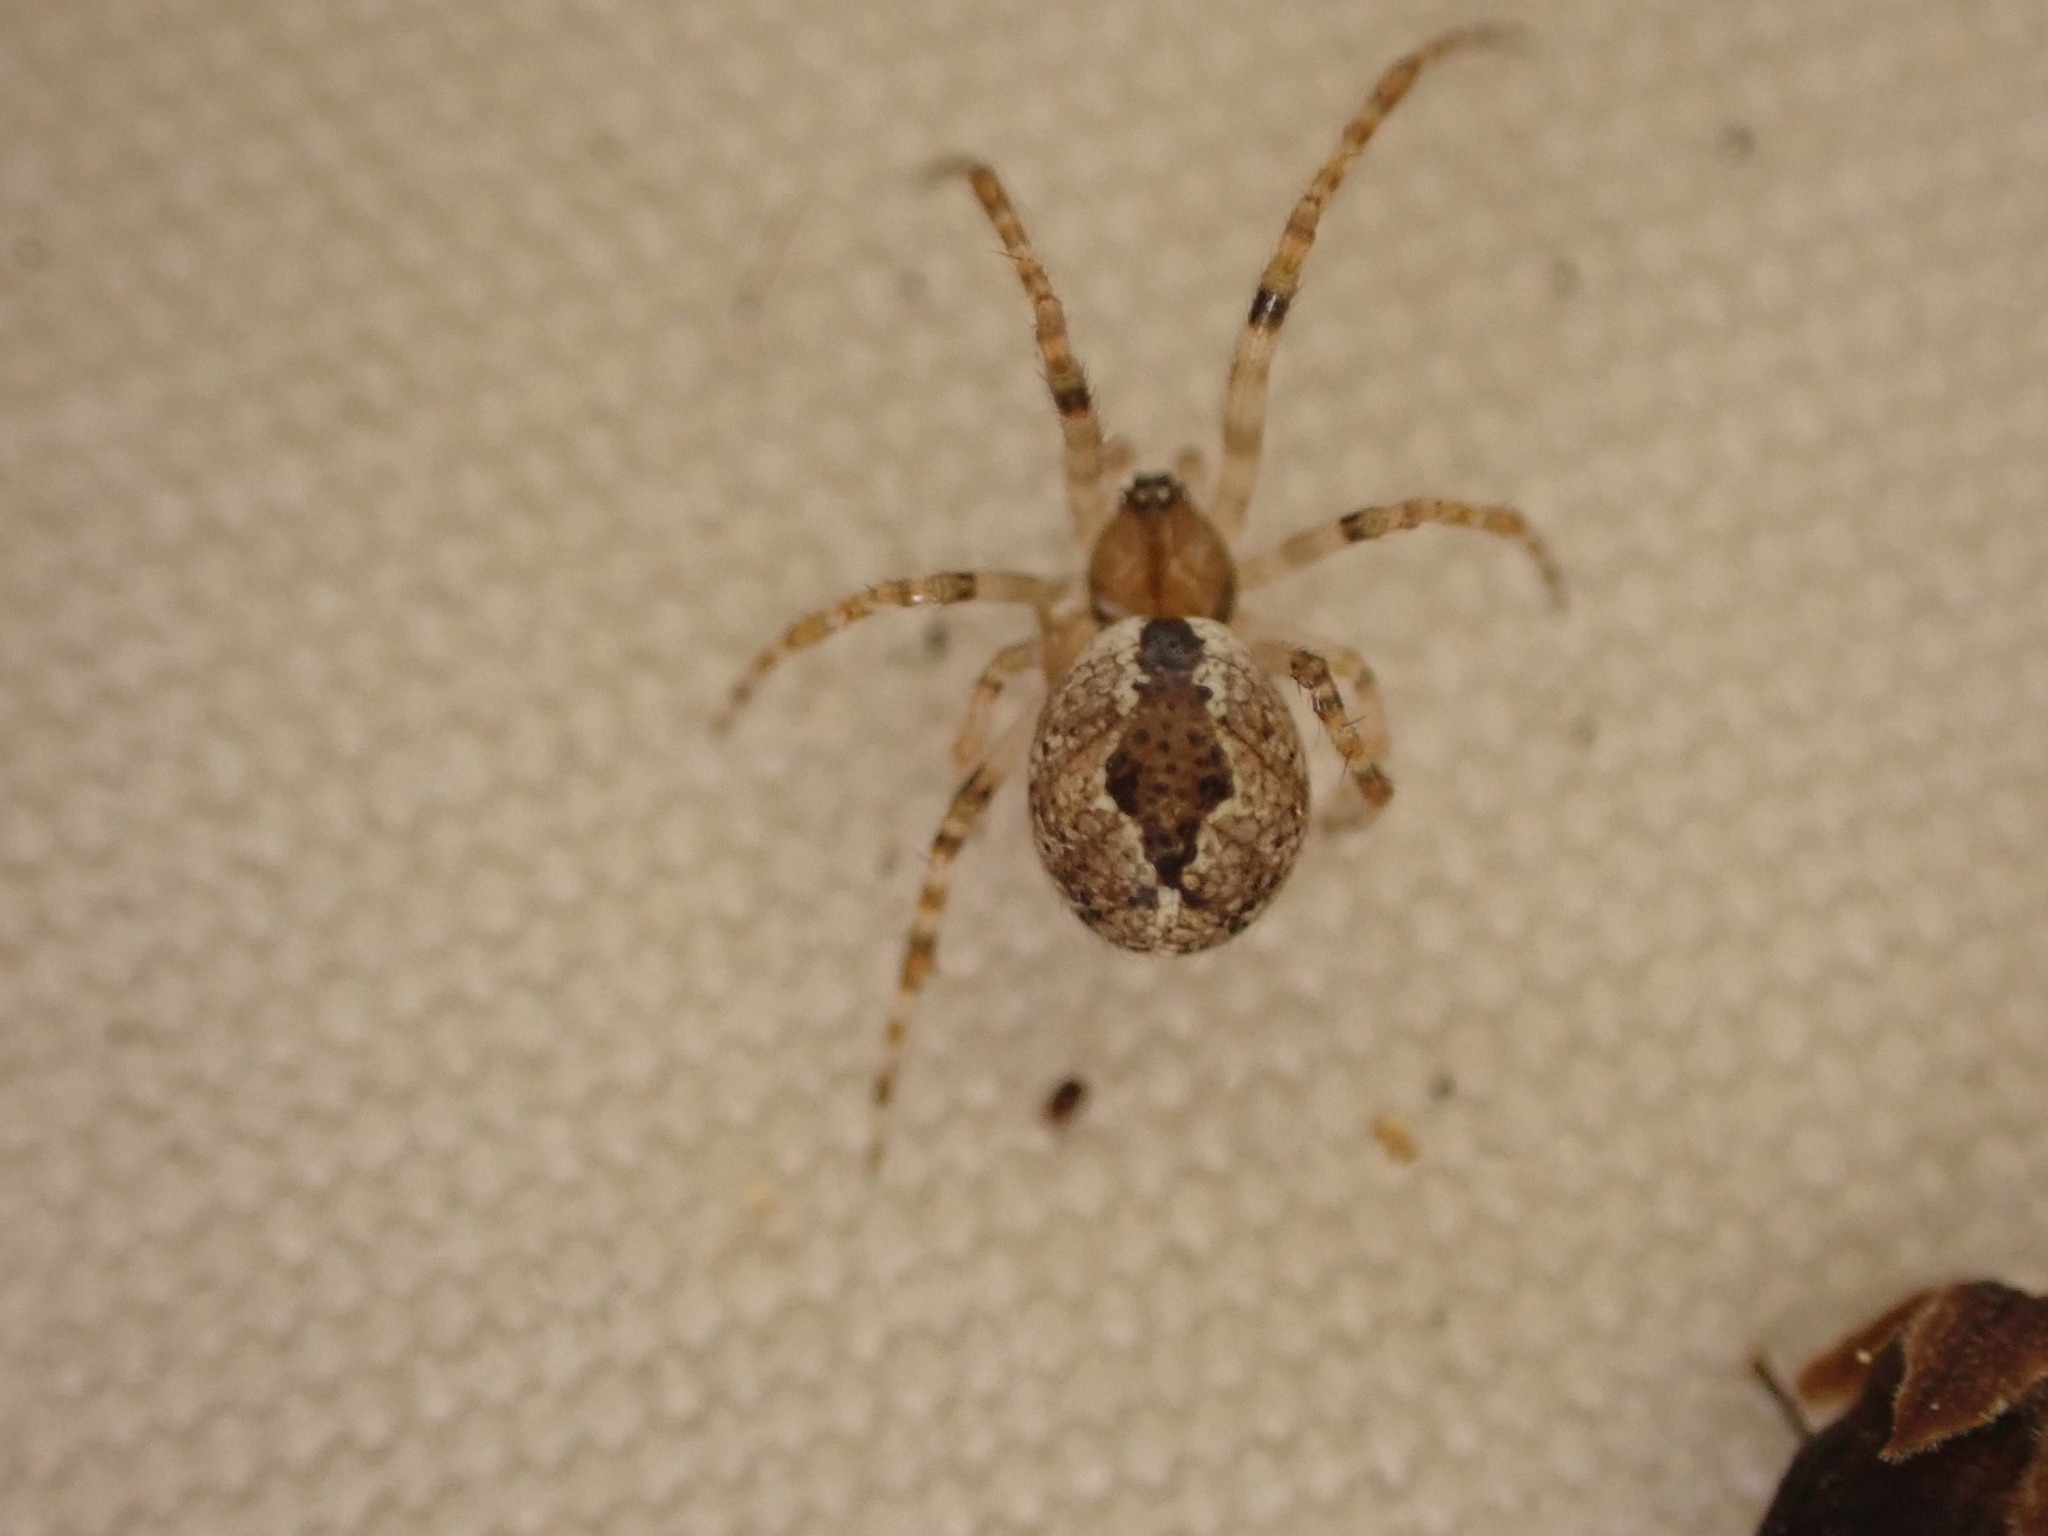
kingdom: Animalia
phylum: Arthropoda
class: Arachnida
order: Araneae
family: Theridiidae
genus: Cryptachaea
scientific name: Cryptachaea veruculata
